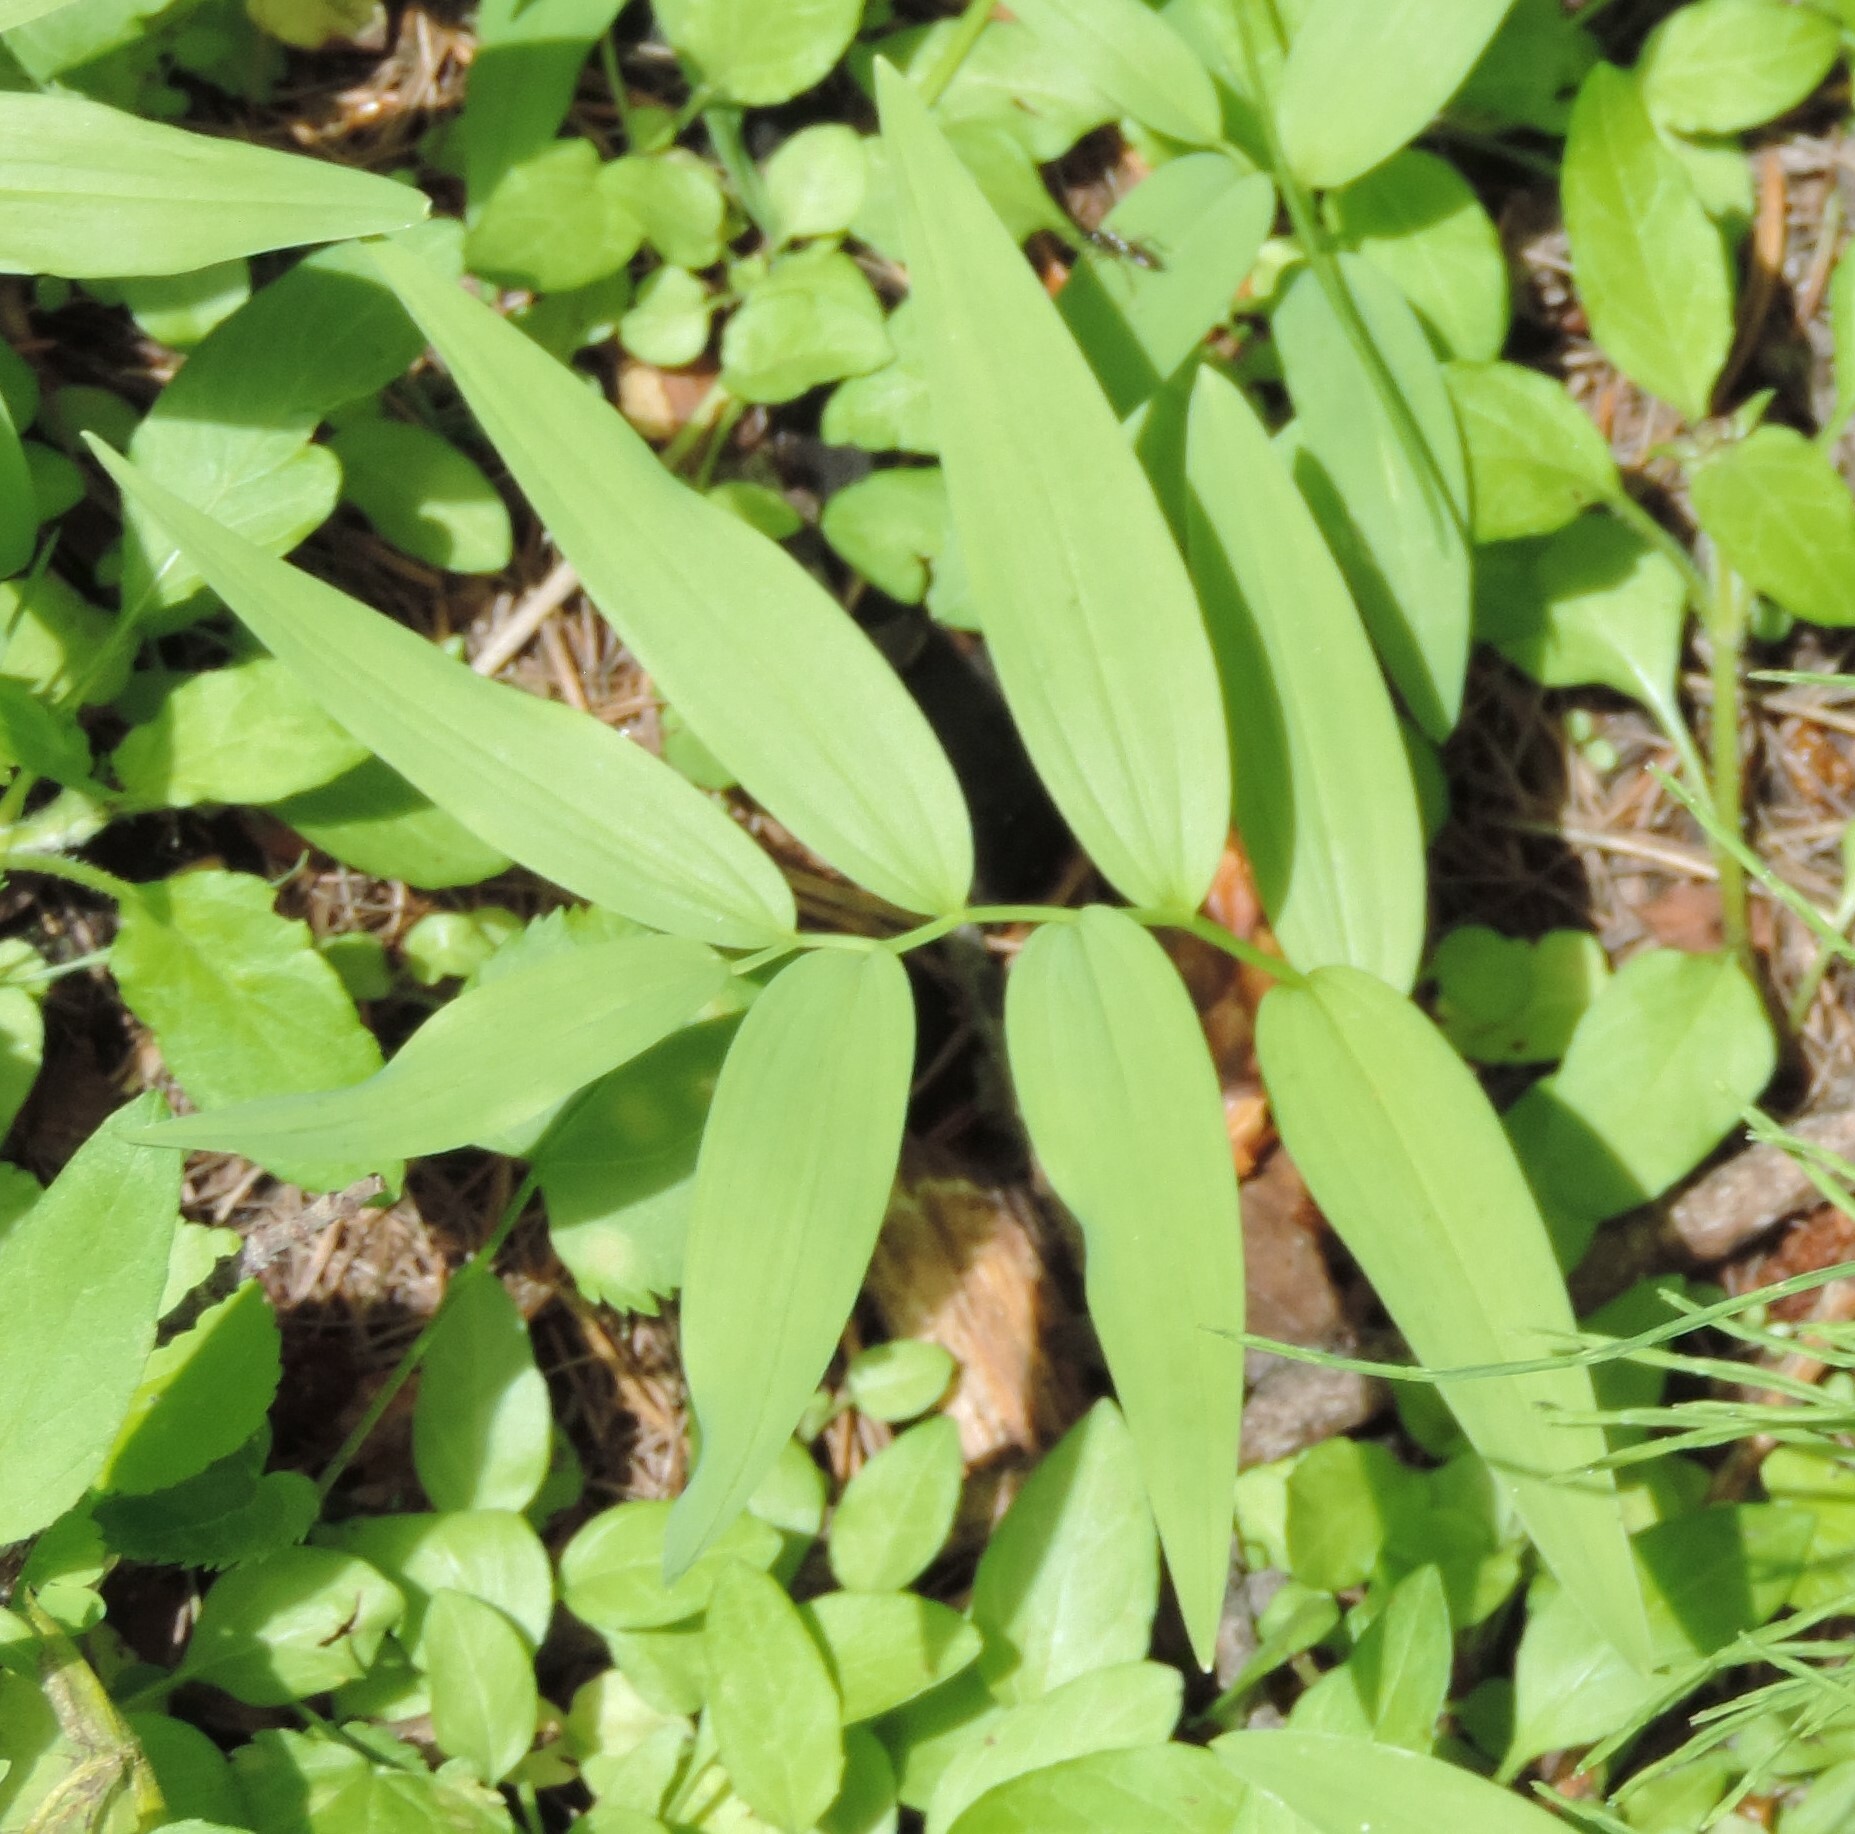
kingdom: Plantae
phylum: Tracheophyta
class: Liliopsida
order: Asparagales
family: Asparagaceae
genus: Maianthemum
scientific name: Maianthemum stellatum
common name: Little false solomon's seal
